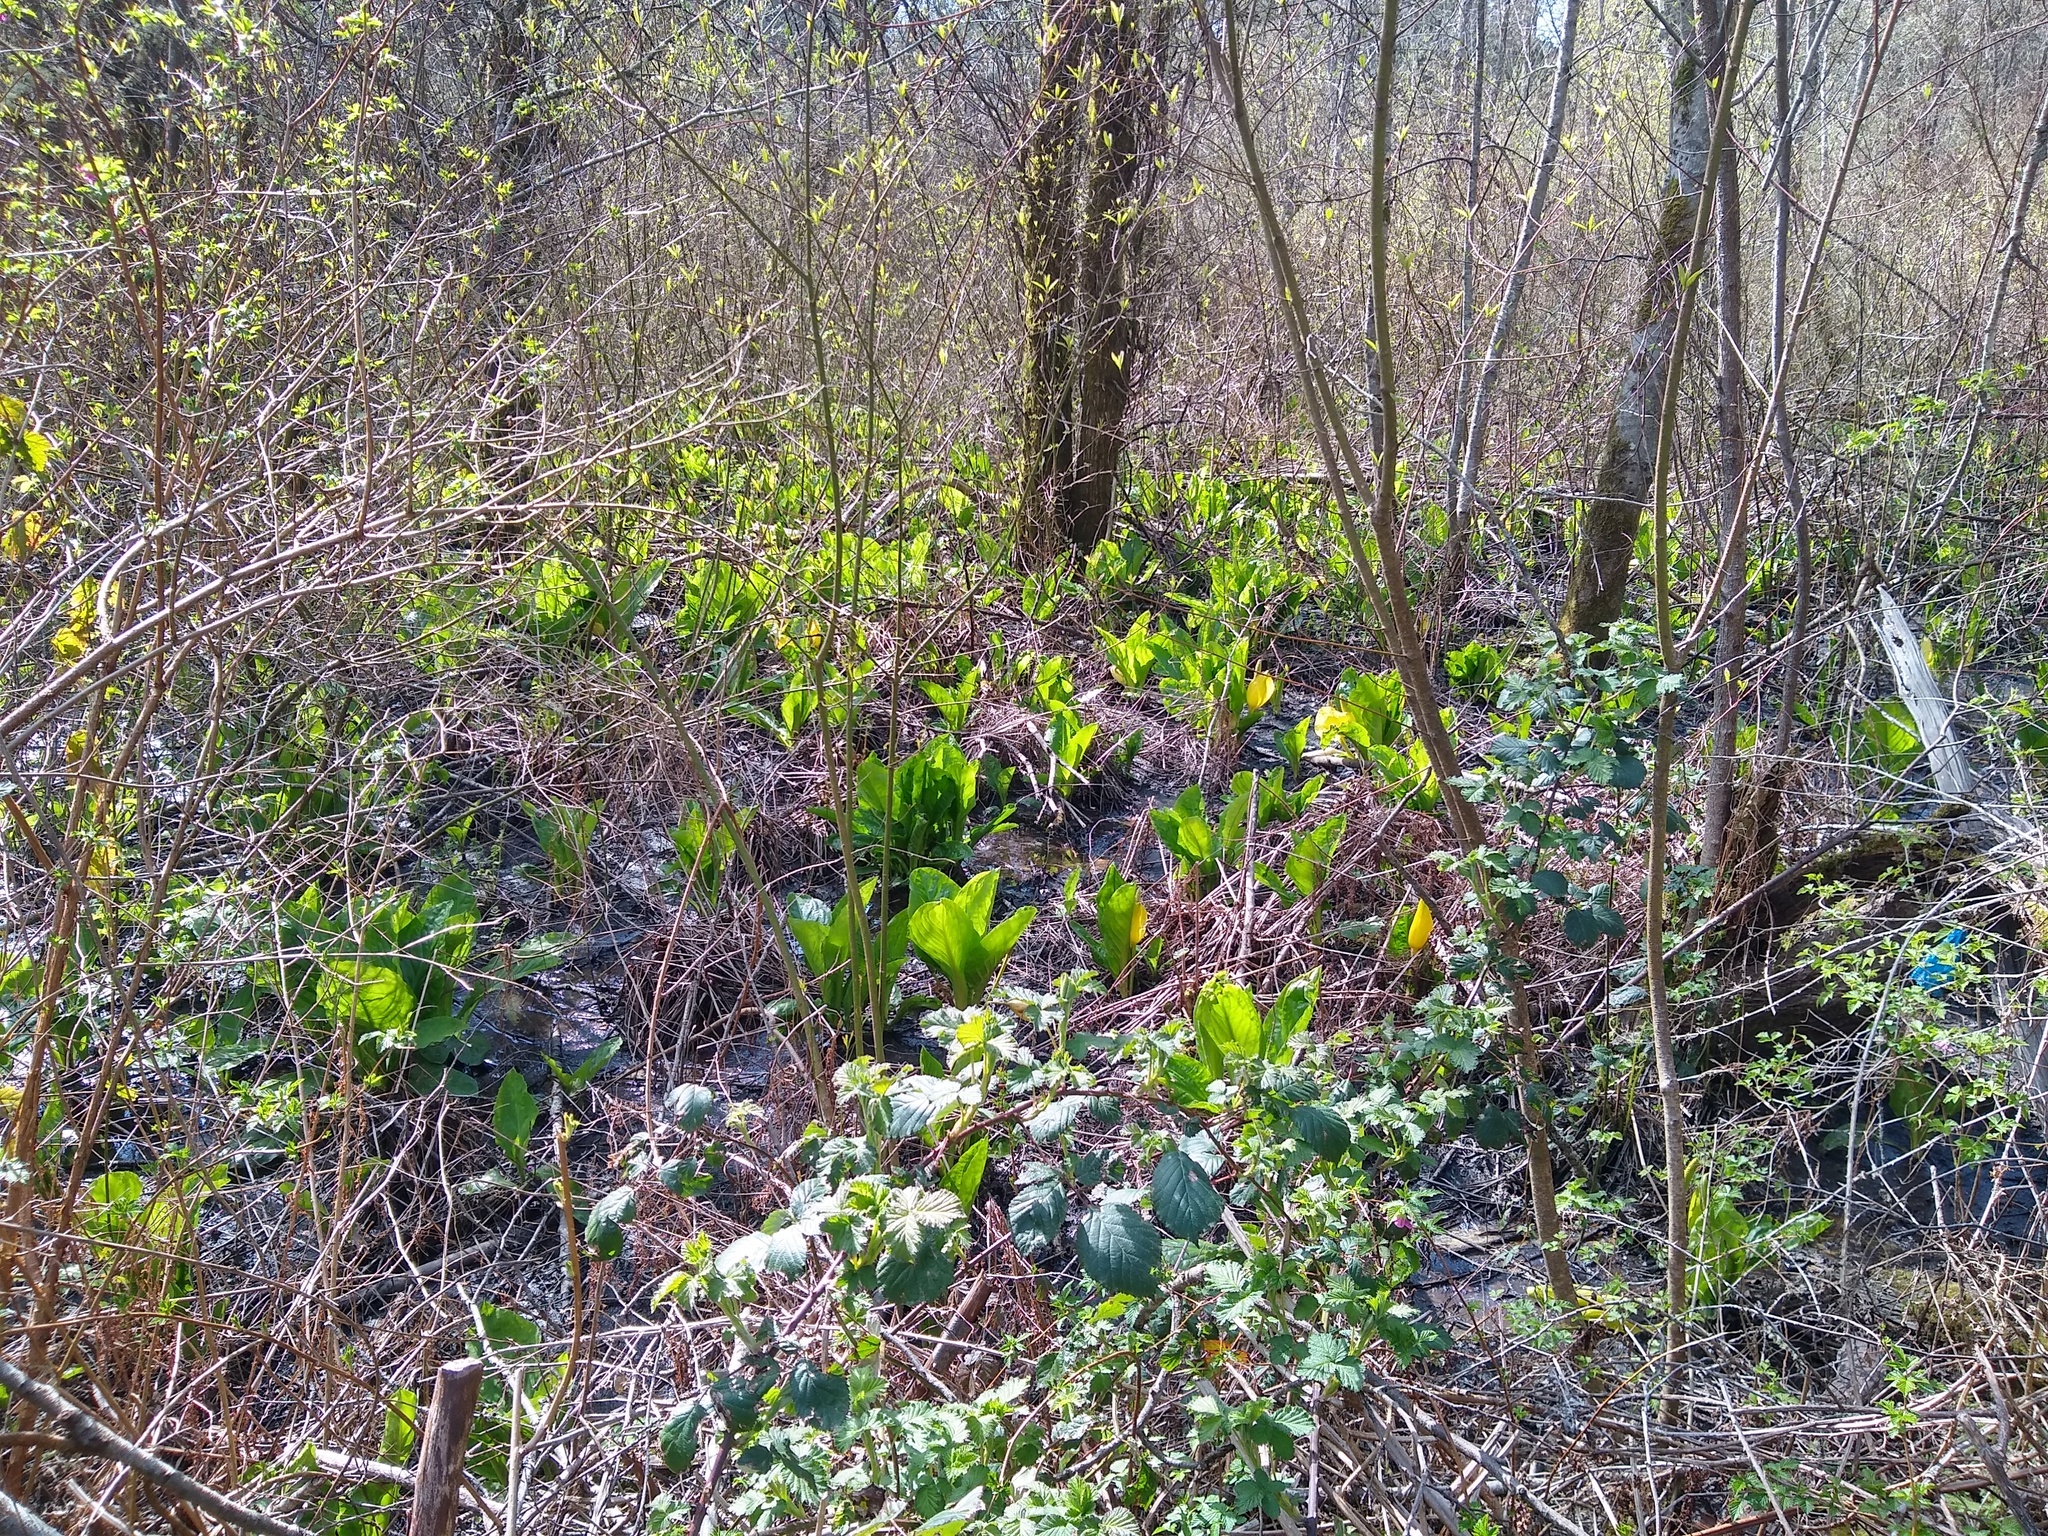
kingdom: Plantae
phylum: Tracheophyta
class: Liliopsida
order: Alismatales
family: Araceae
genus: Lysichiton
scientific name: Lysichiton americanus
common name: American skunk cabbage
